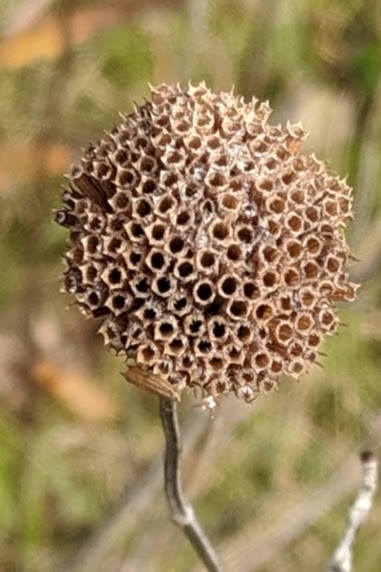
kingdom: Plantae
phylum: Tracheophyta
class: Magnoliopsida
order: Lamiales
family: Lamiaceae
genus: Monarda
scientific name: Monarda fistulosa
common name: Purple beebalm
